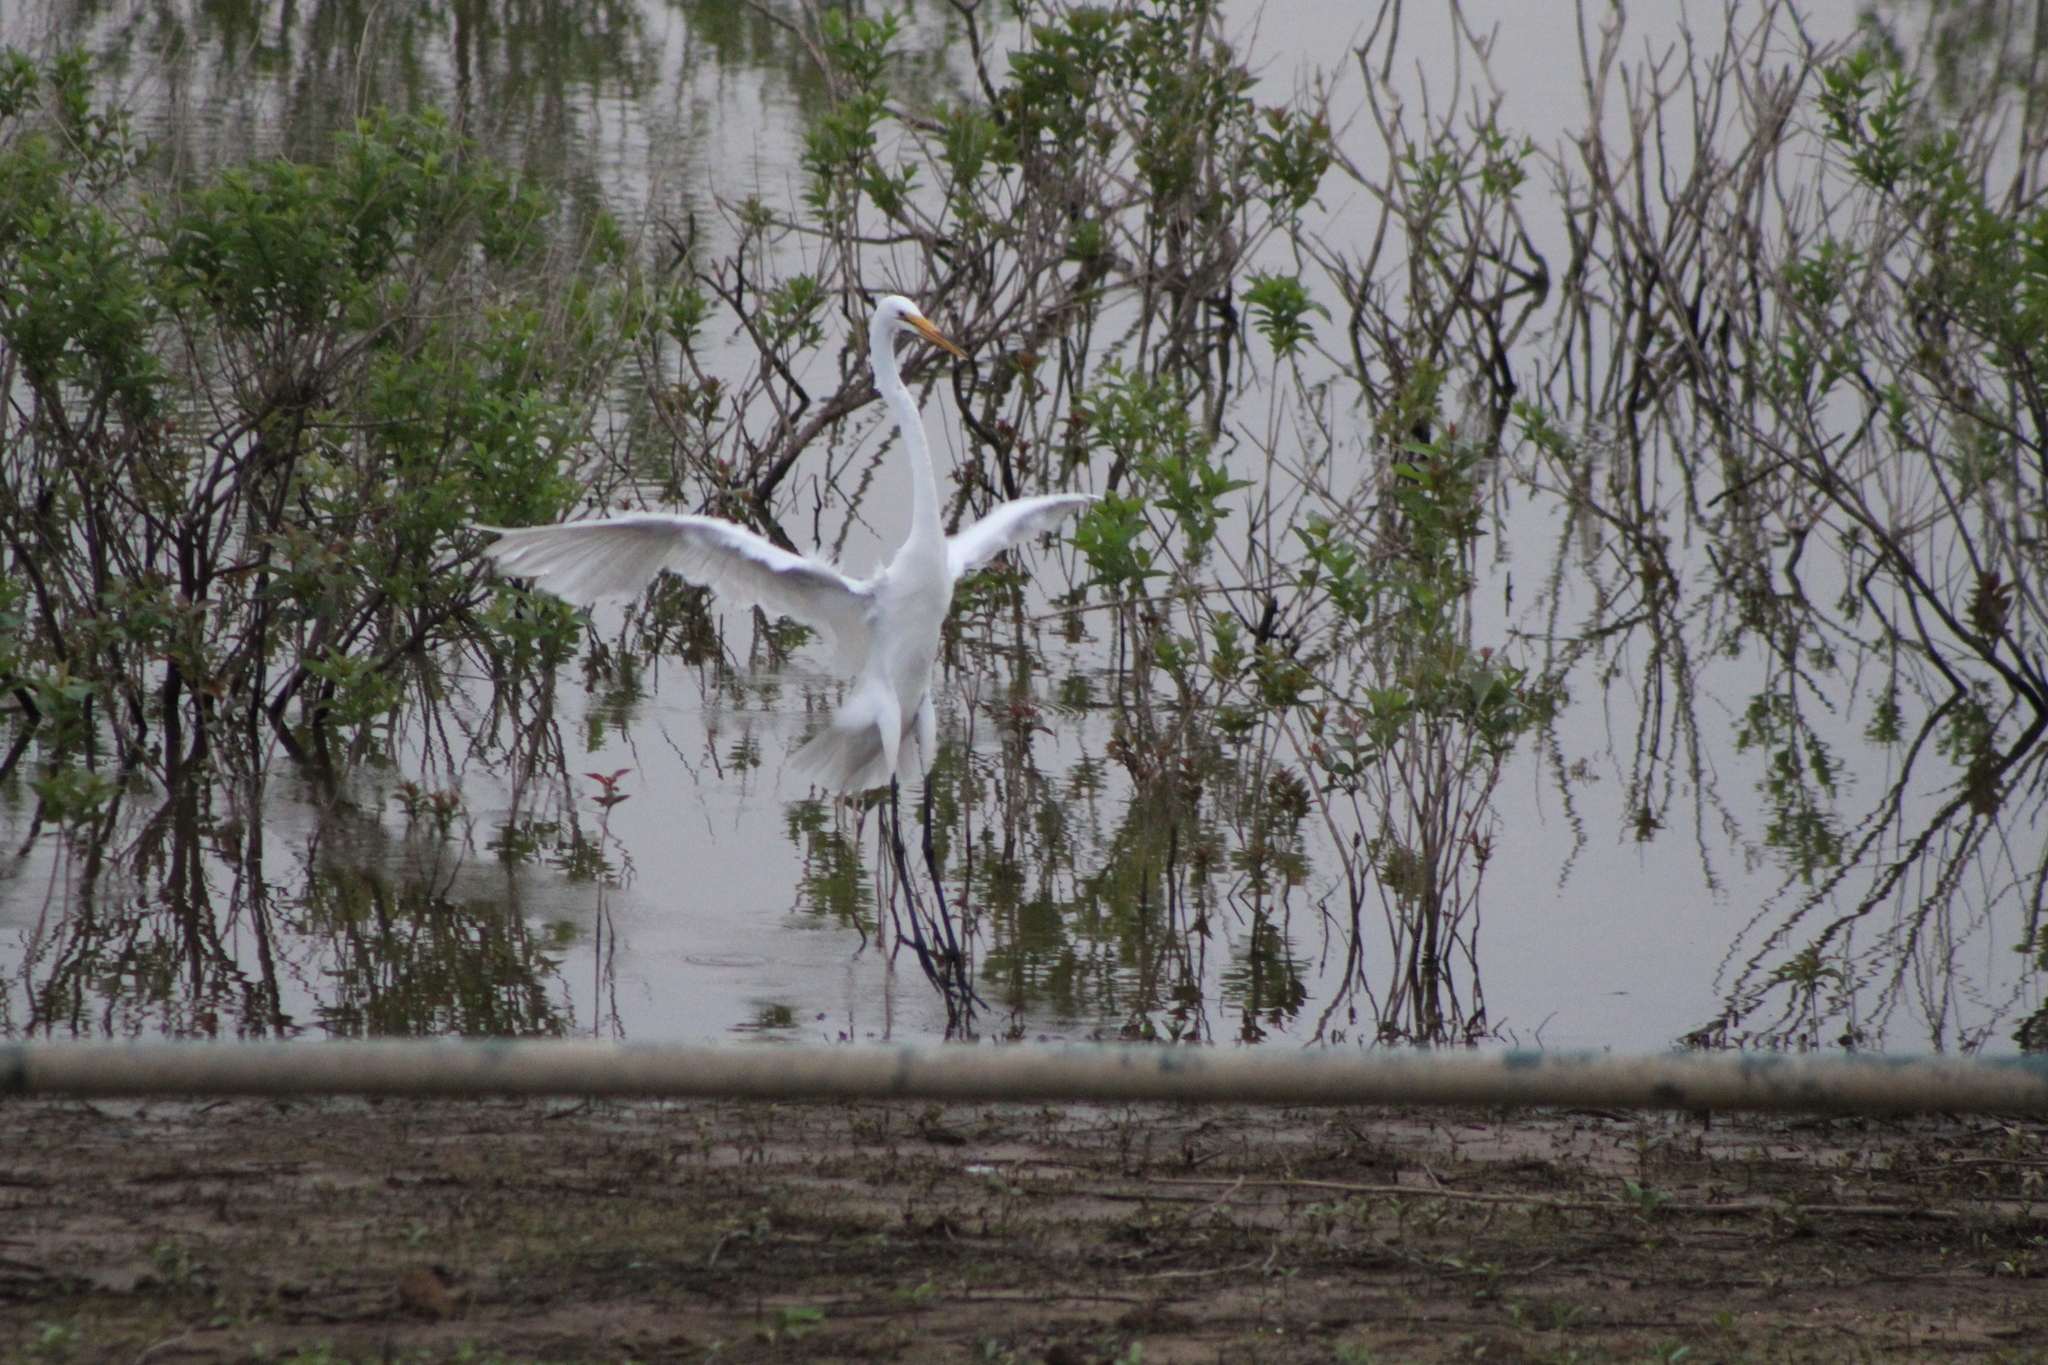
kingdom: Animalia
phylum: Chordata
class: Aves
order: Pelecaniformes
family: Ardeidae
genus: Ardea
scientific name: Ardea alba
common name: Great egret
